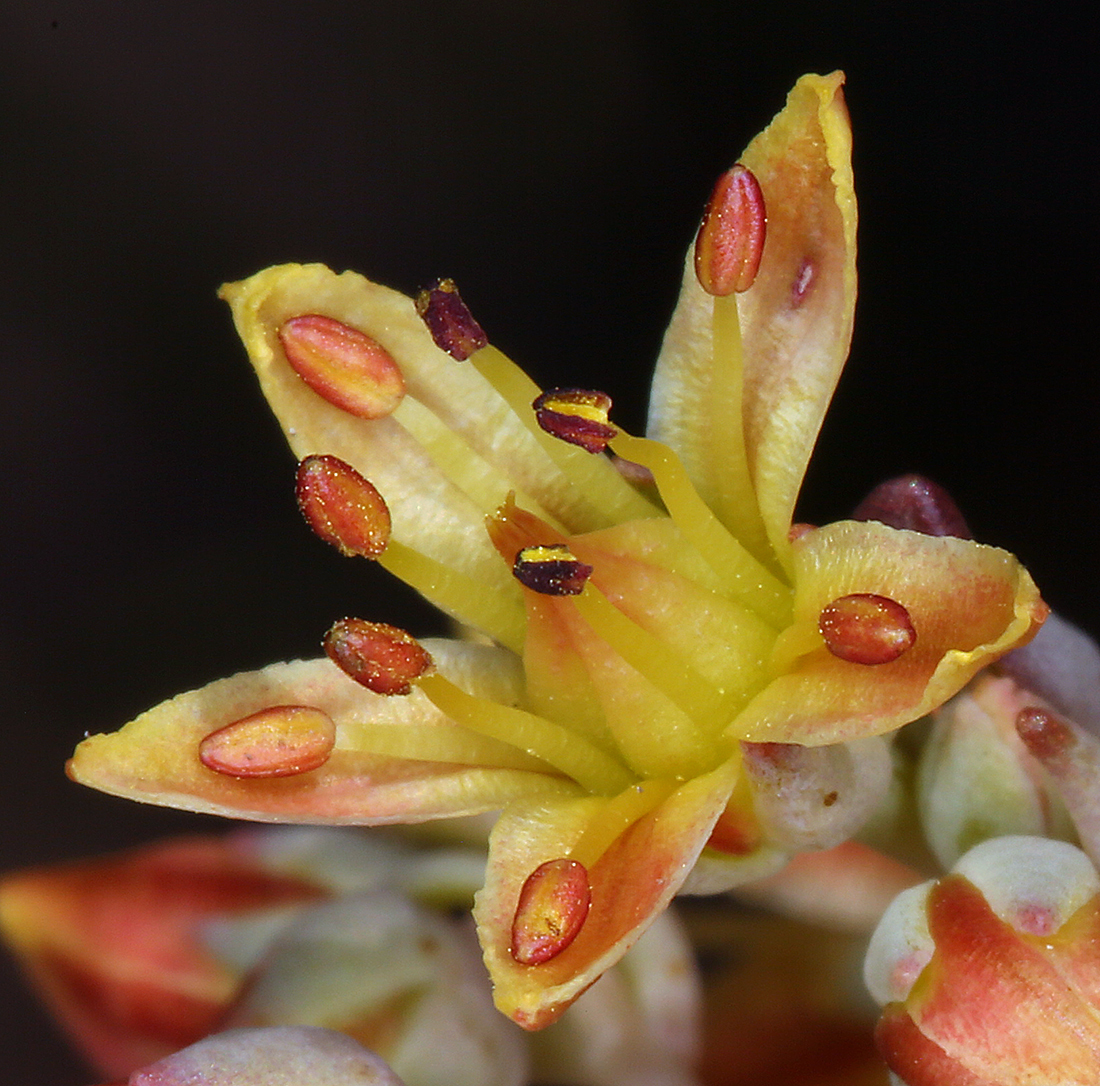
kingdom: Plantae
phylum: Tracheophyta
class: Magnoliopsida
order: Saxifragales
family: Crassulaceae
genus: Sedum
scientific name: Sedum obtusatum
